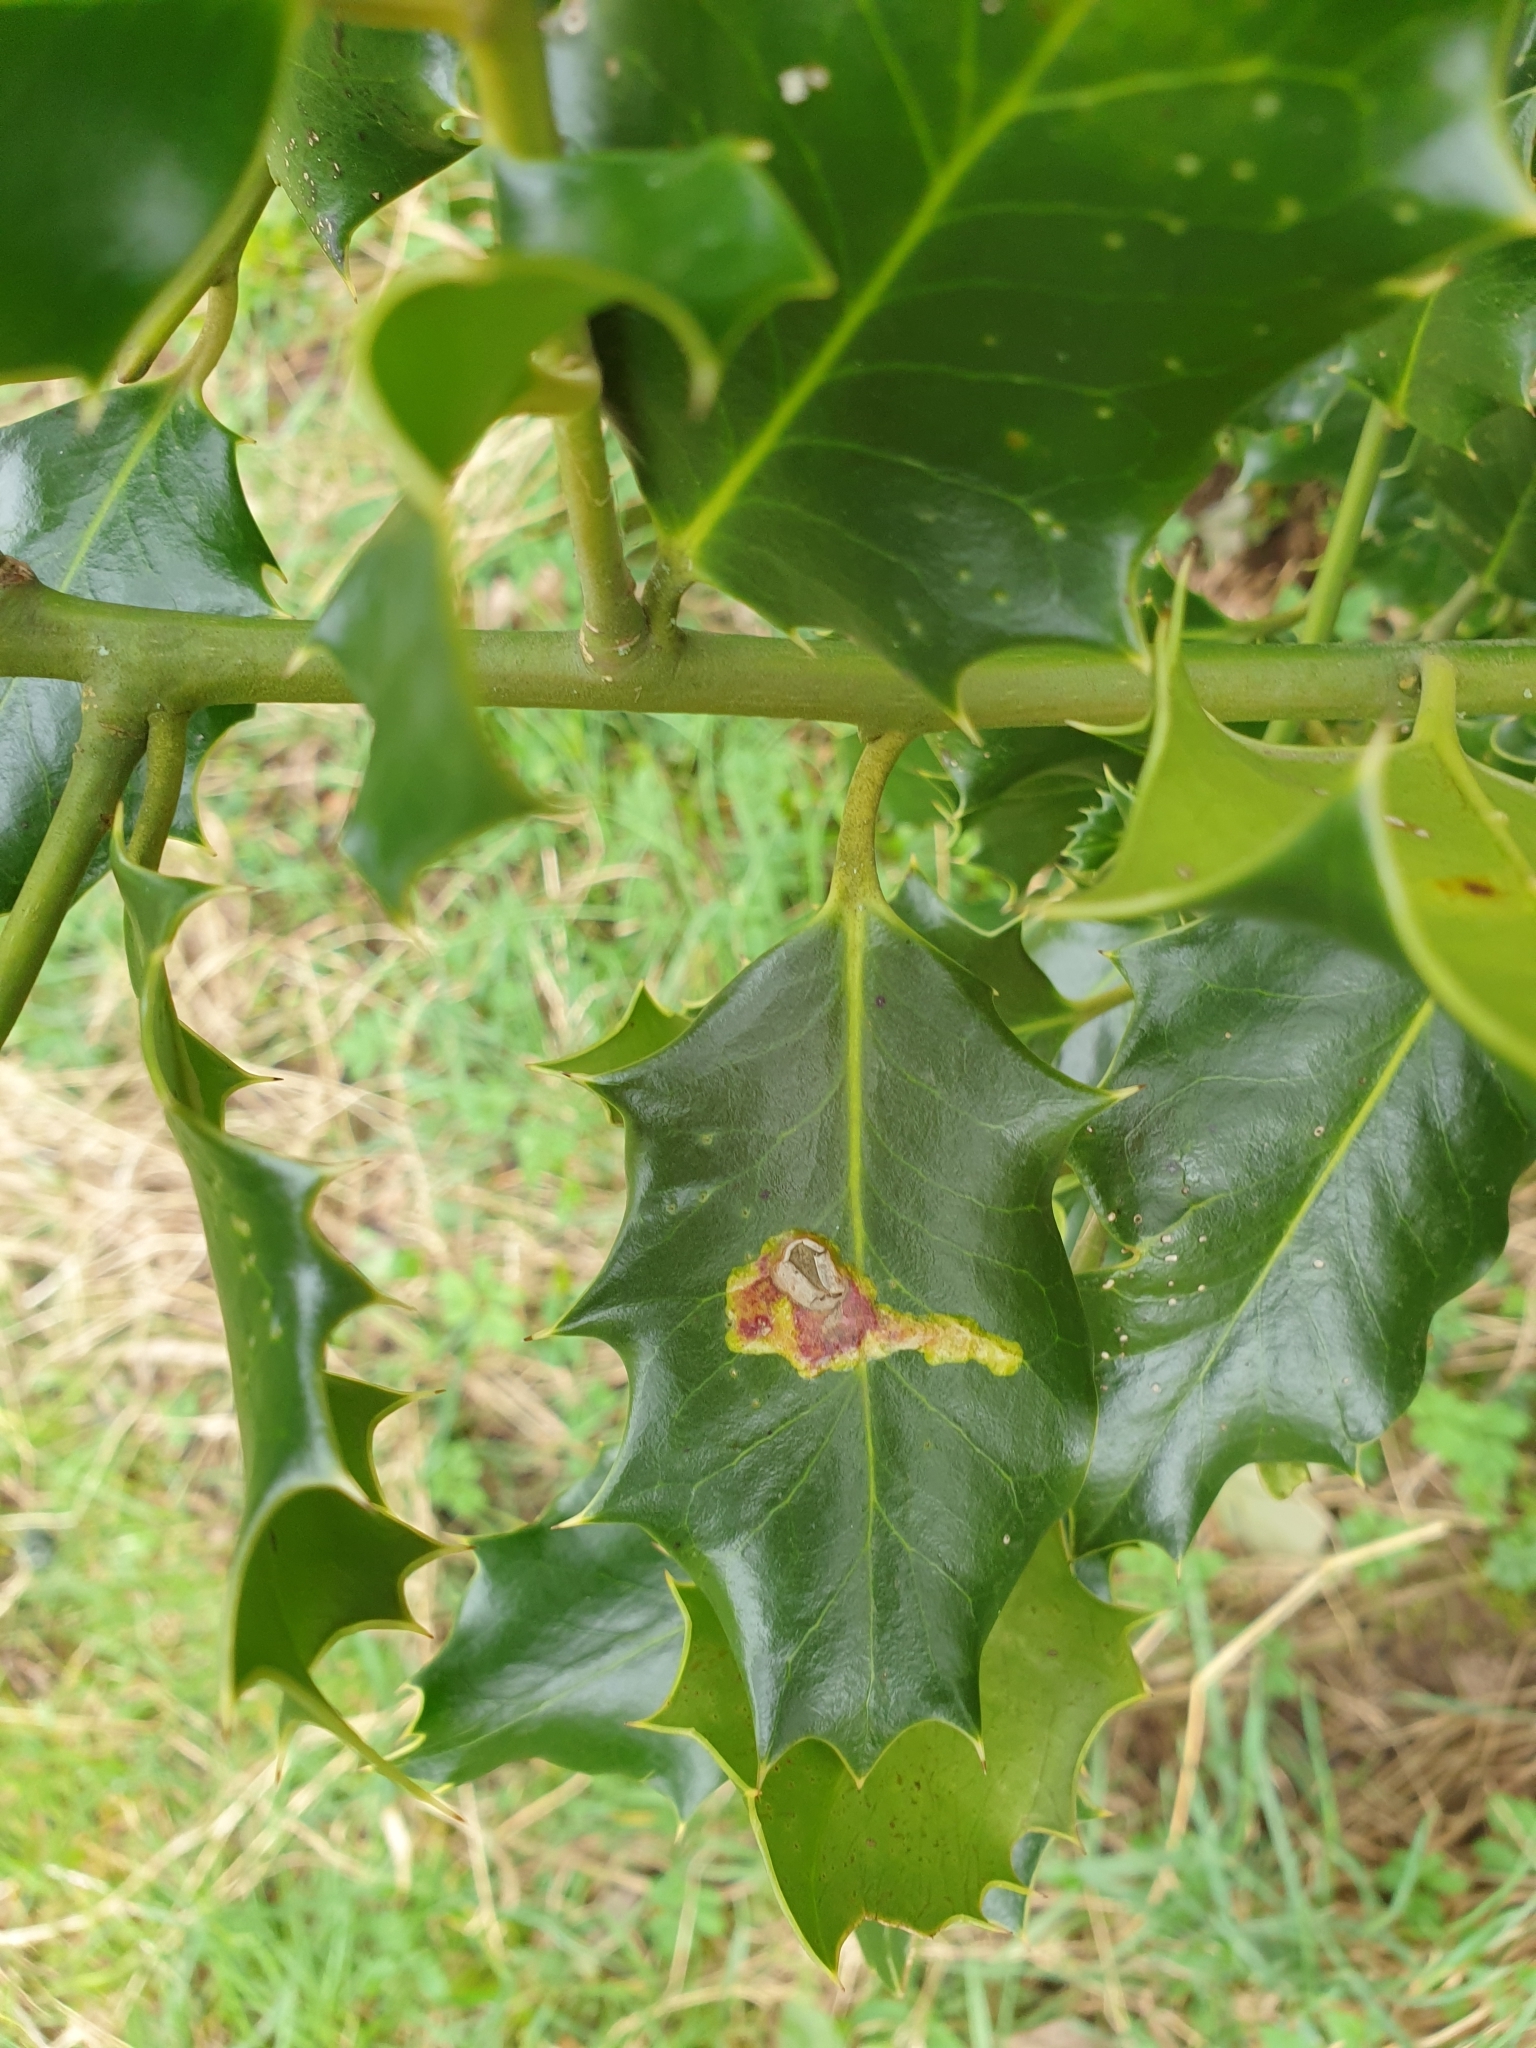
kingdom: Animalia
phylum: Arthropoda
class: Insecta
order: Diptera
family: Agromyzidae
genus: Phytomyza
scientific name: Phytomyza ilicis
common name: Holly leafminer
